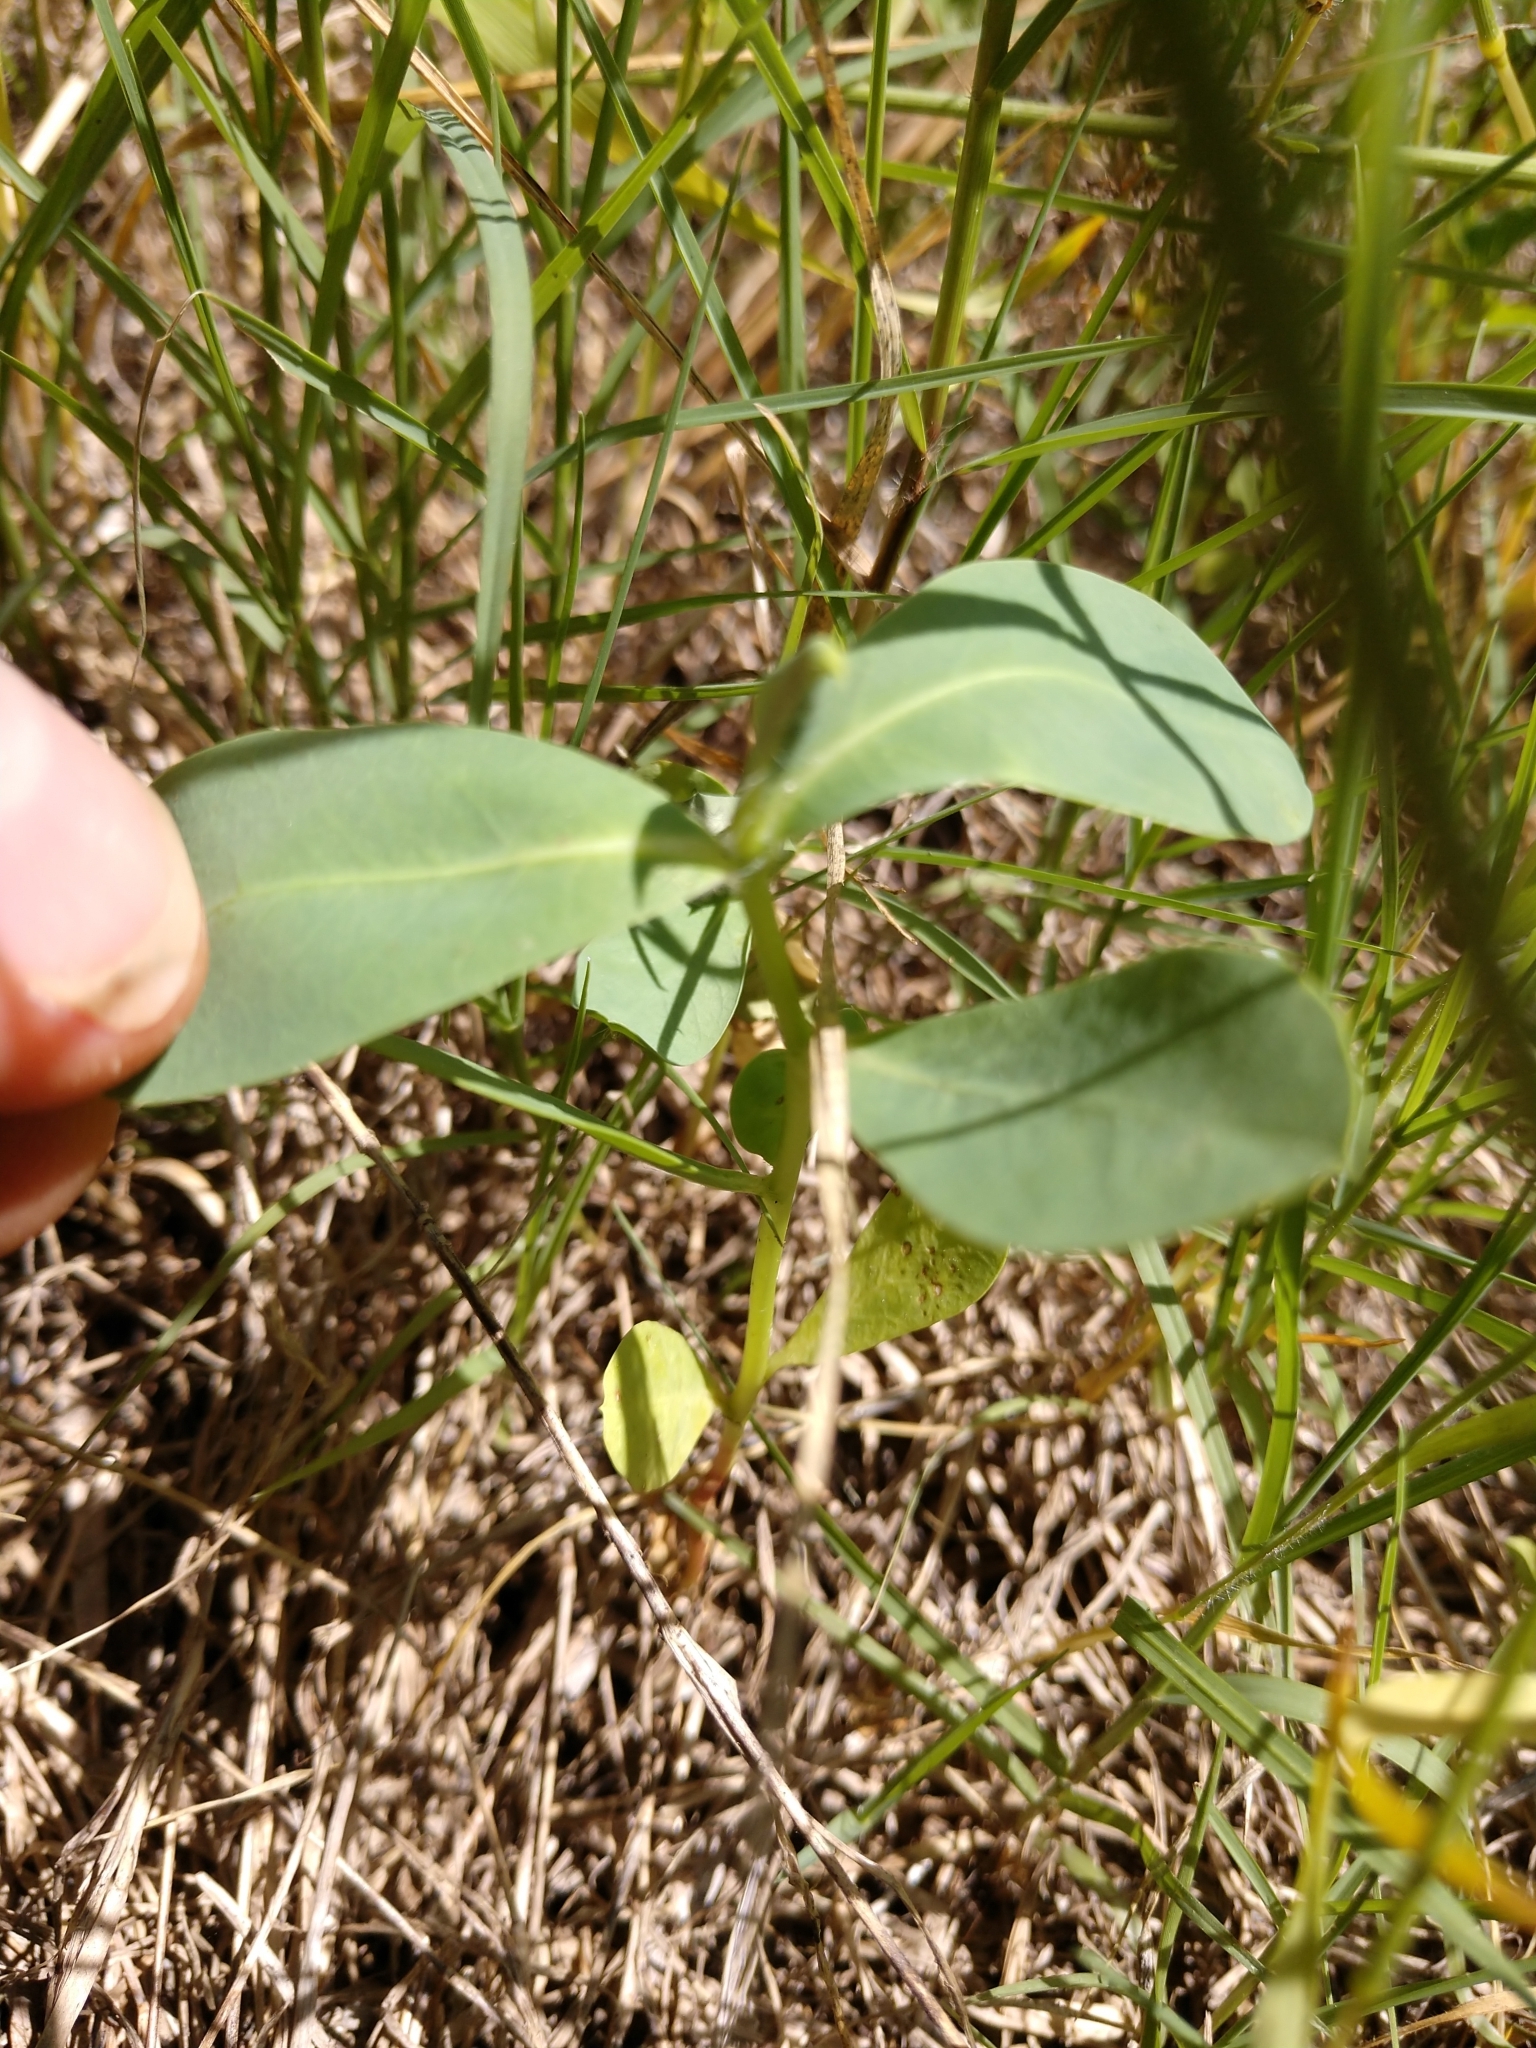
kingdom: Plantae
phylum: Tracheophyta
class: Magnoliopsida
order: Malpighiales
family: Euphorbiaceae
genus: Euphorbia
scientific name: Euphorbia marginata
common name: Ghostweed
